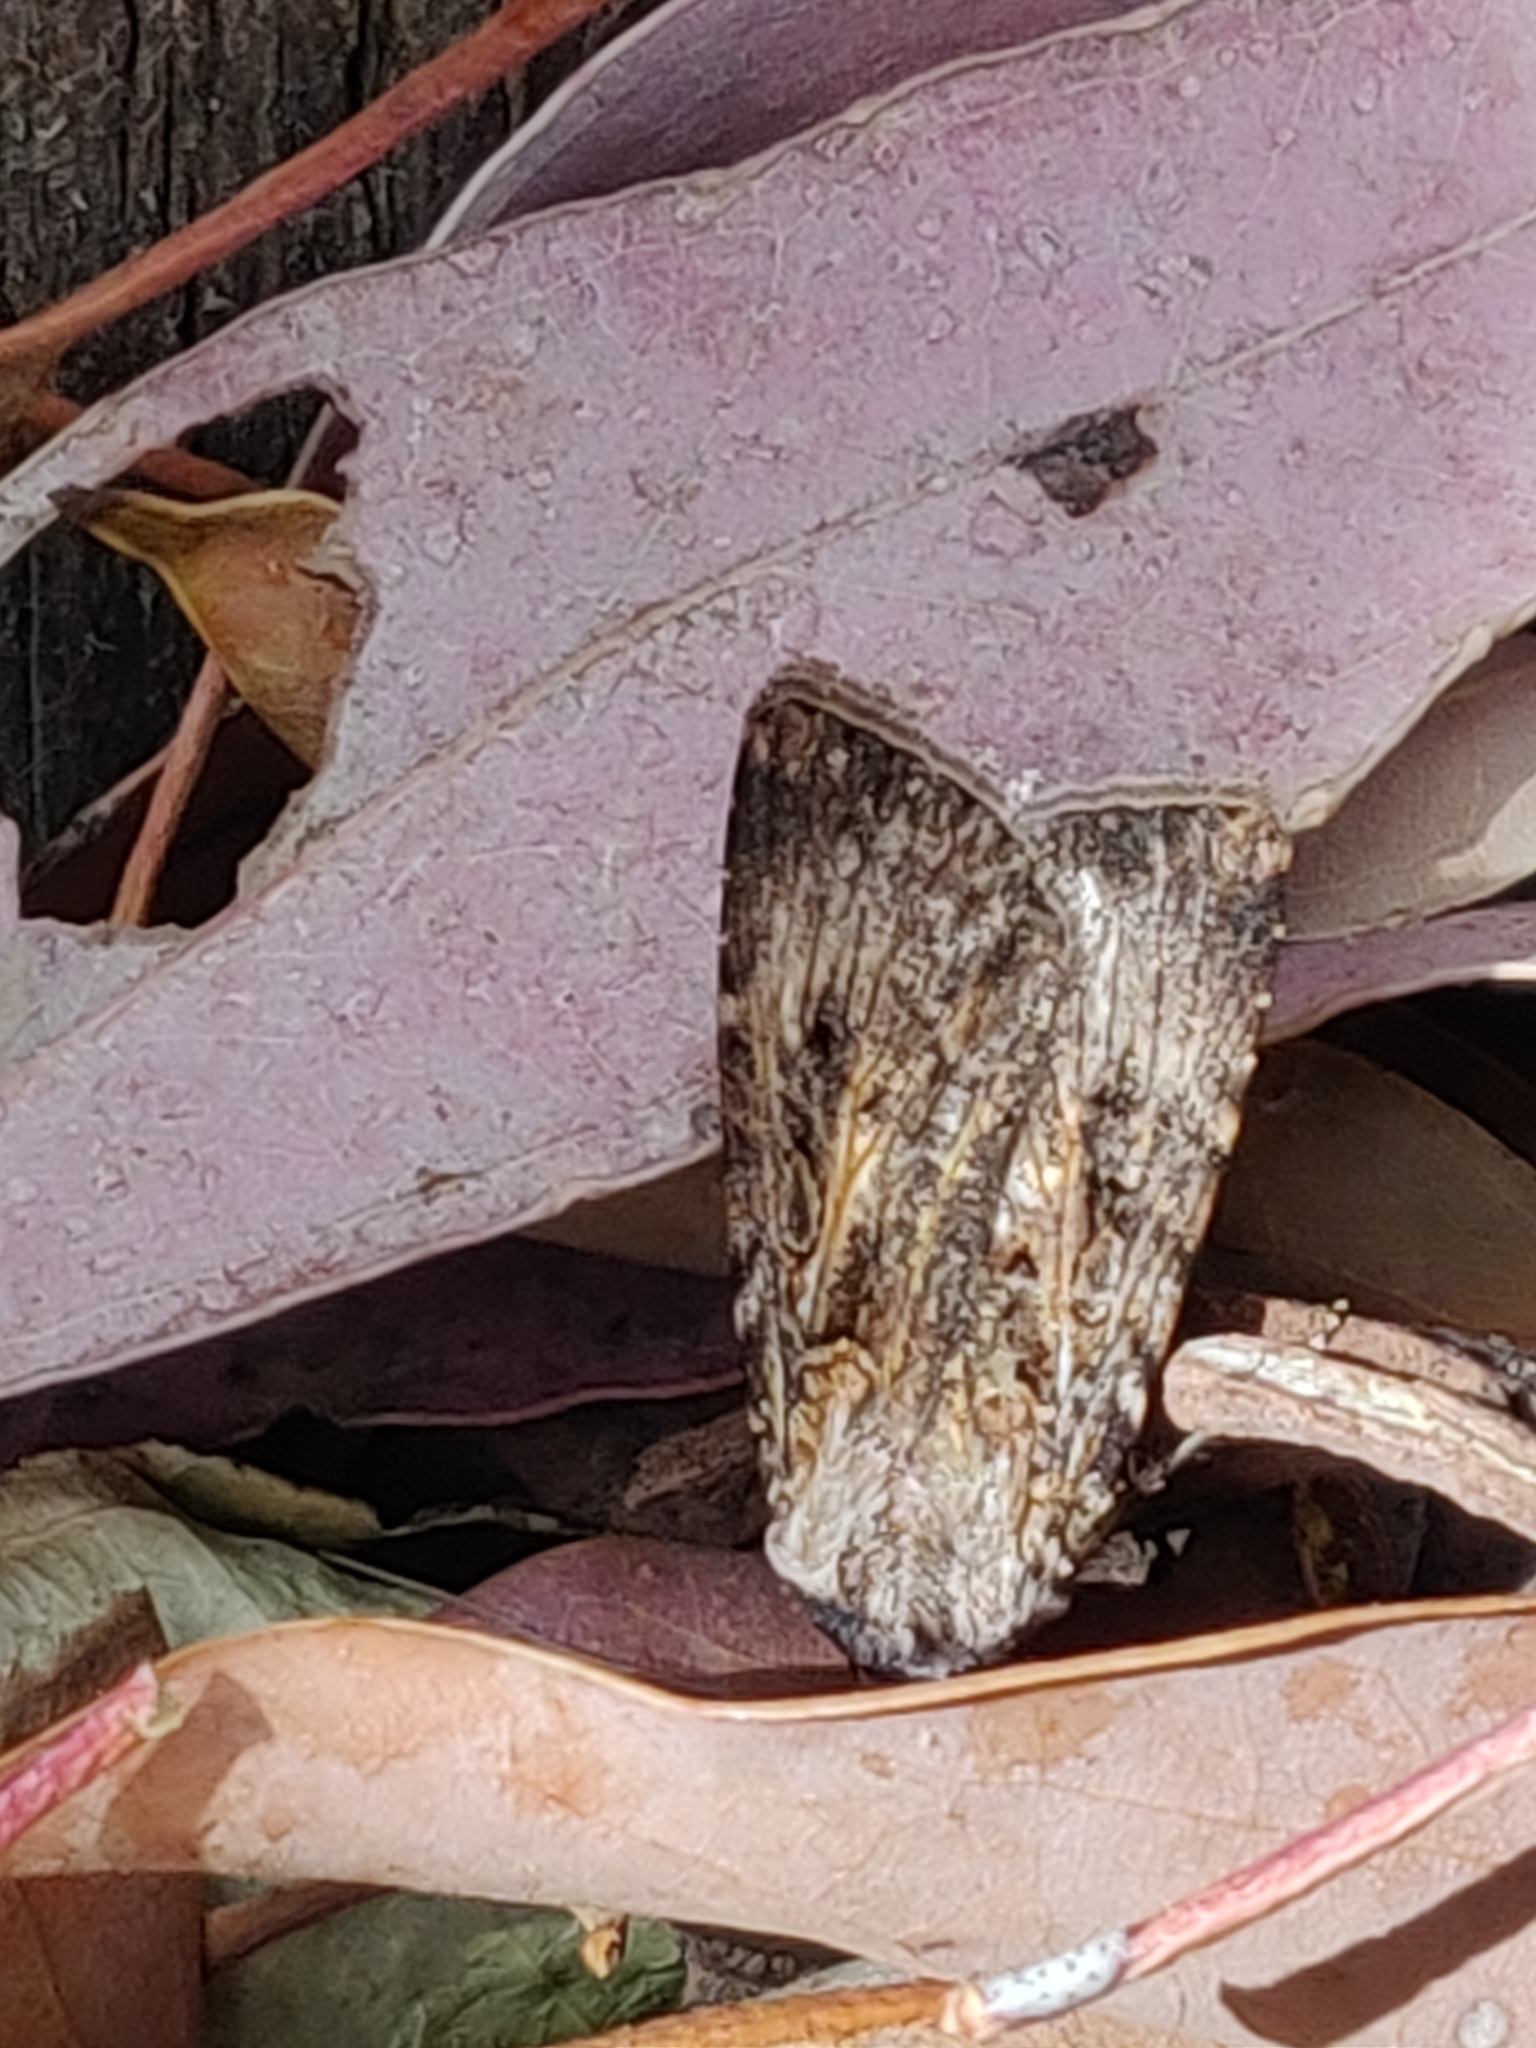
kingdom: Animalia
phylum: Arthropoda
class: Insecta
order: Lepidoptera
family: Noctuidae
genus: Agrotis
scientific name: Agrotis munda
